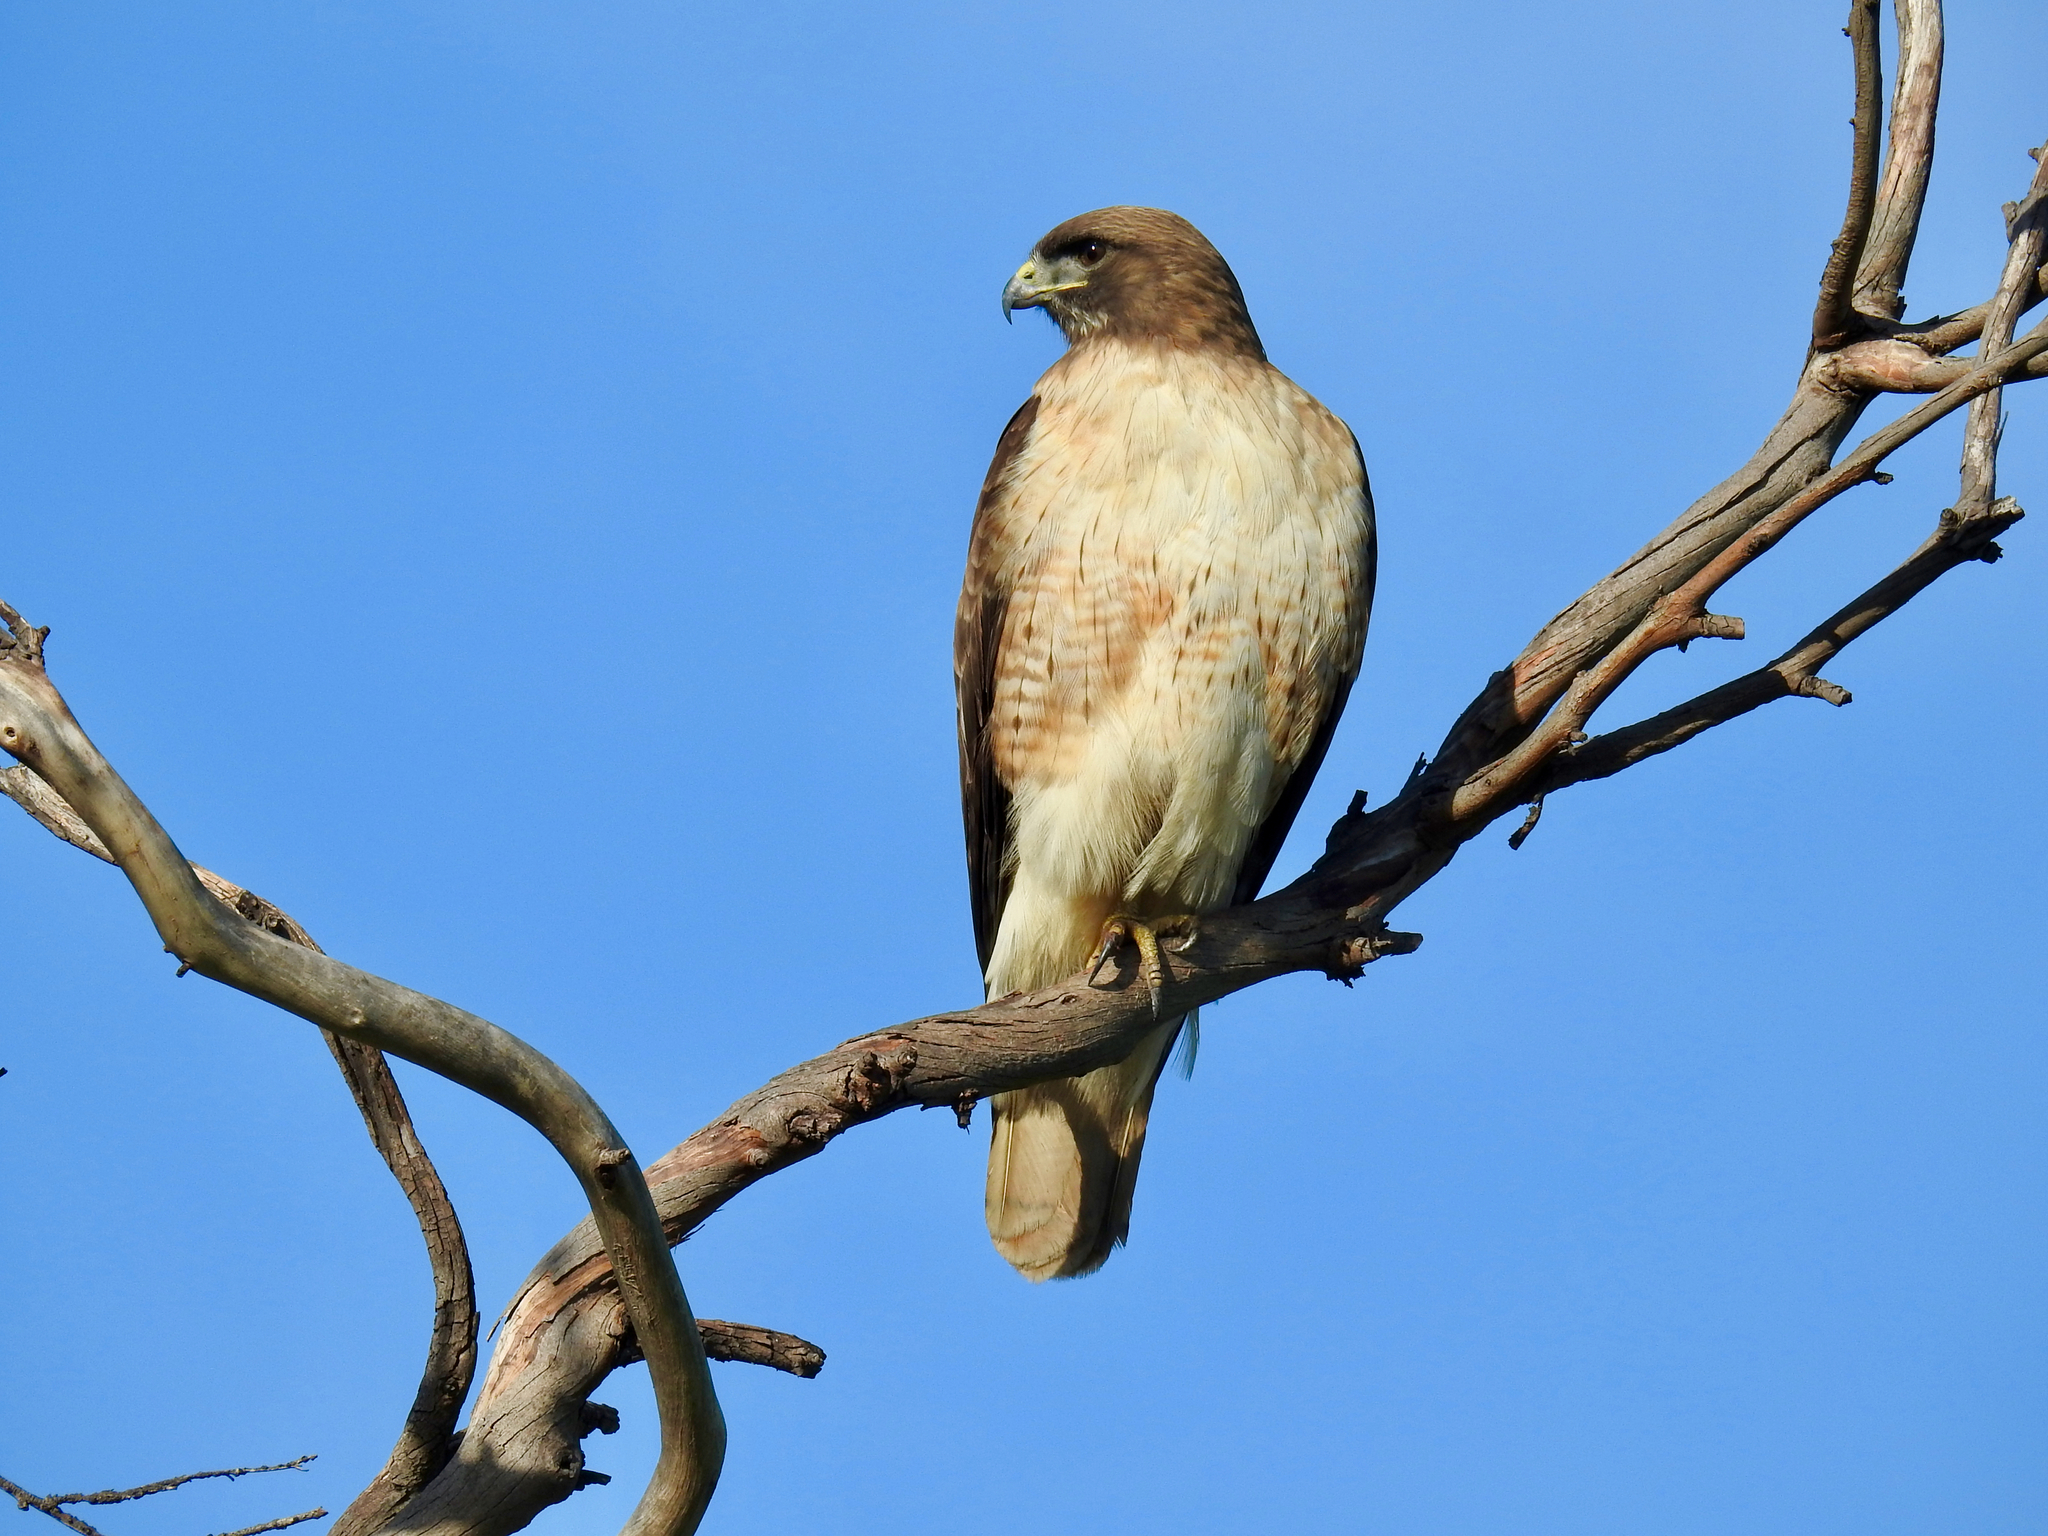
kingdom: Animalia
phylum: Chordata
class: Aves
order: Accipitriformes
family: Accipitridae
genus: Buteo
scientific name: Buteo jamaicensis
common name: Red-tailed hawk
